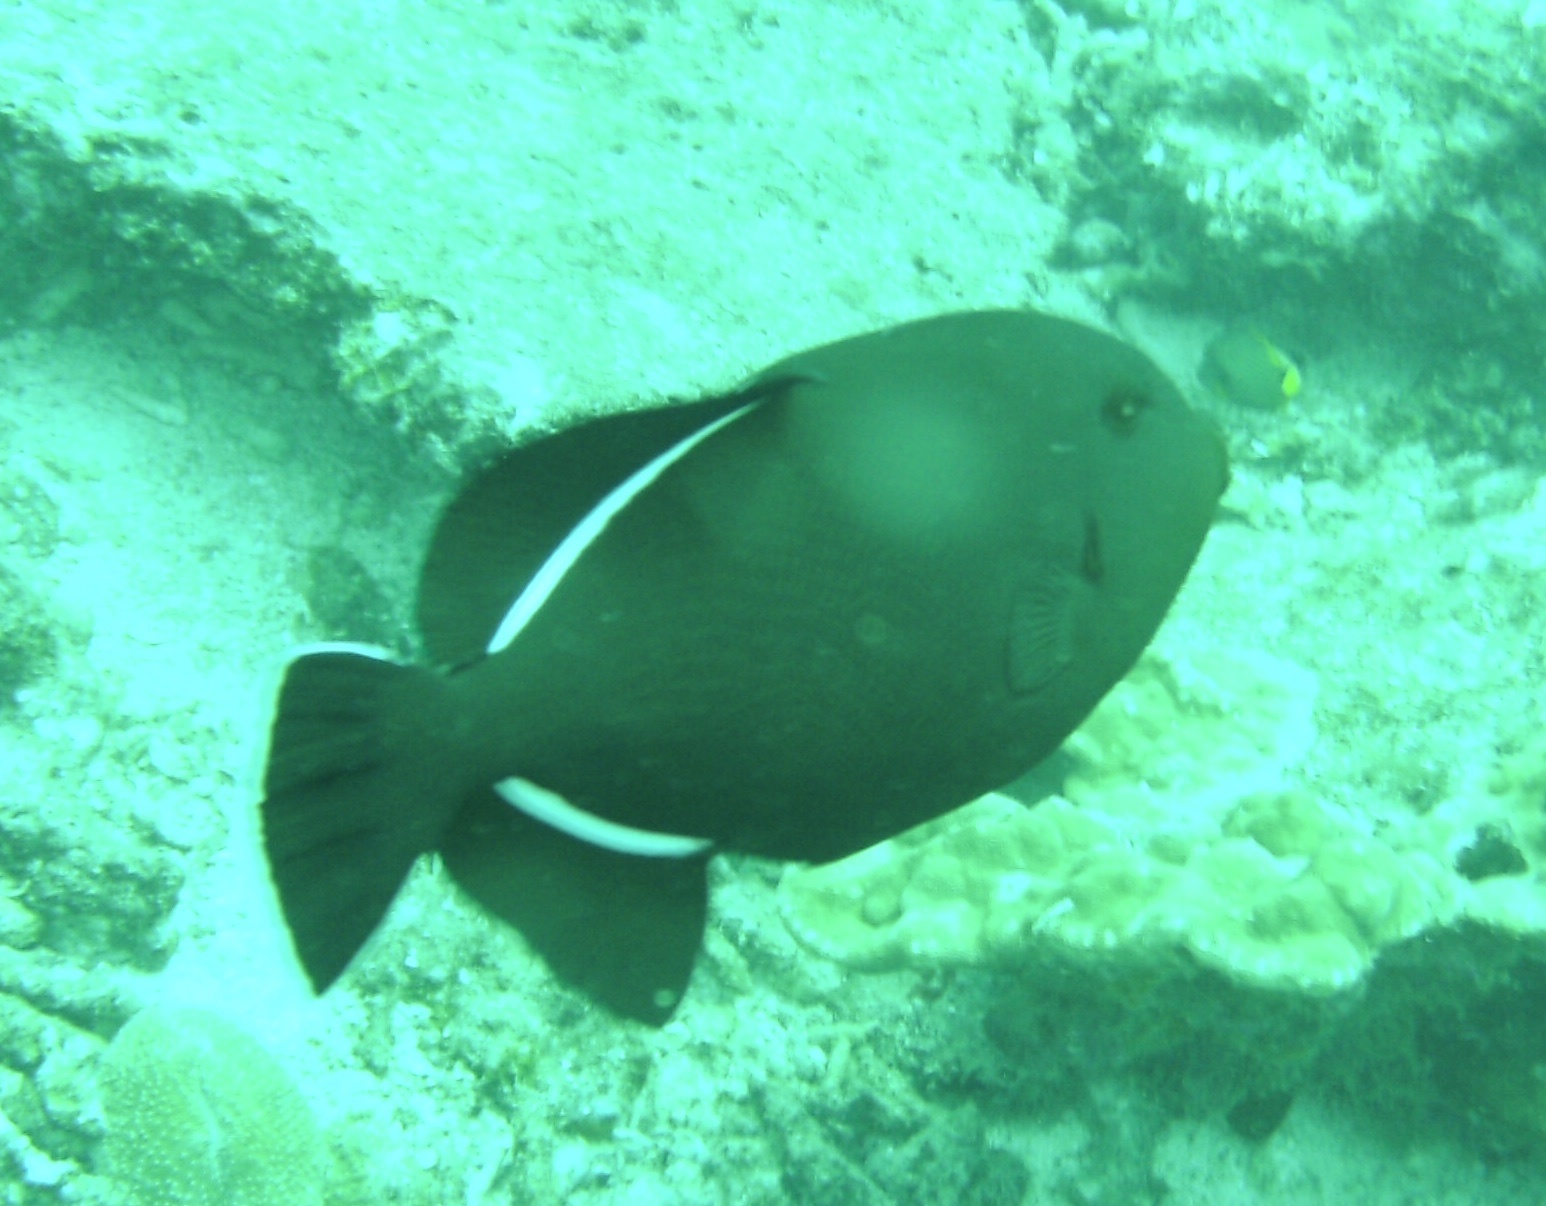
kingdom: Animalia
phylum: Chordata
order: Tetraodontiformes
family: Balistidae
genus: Melichthys
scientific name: Melichthys indicus
